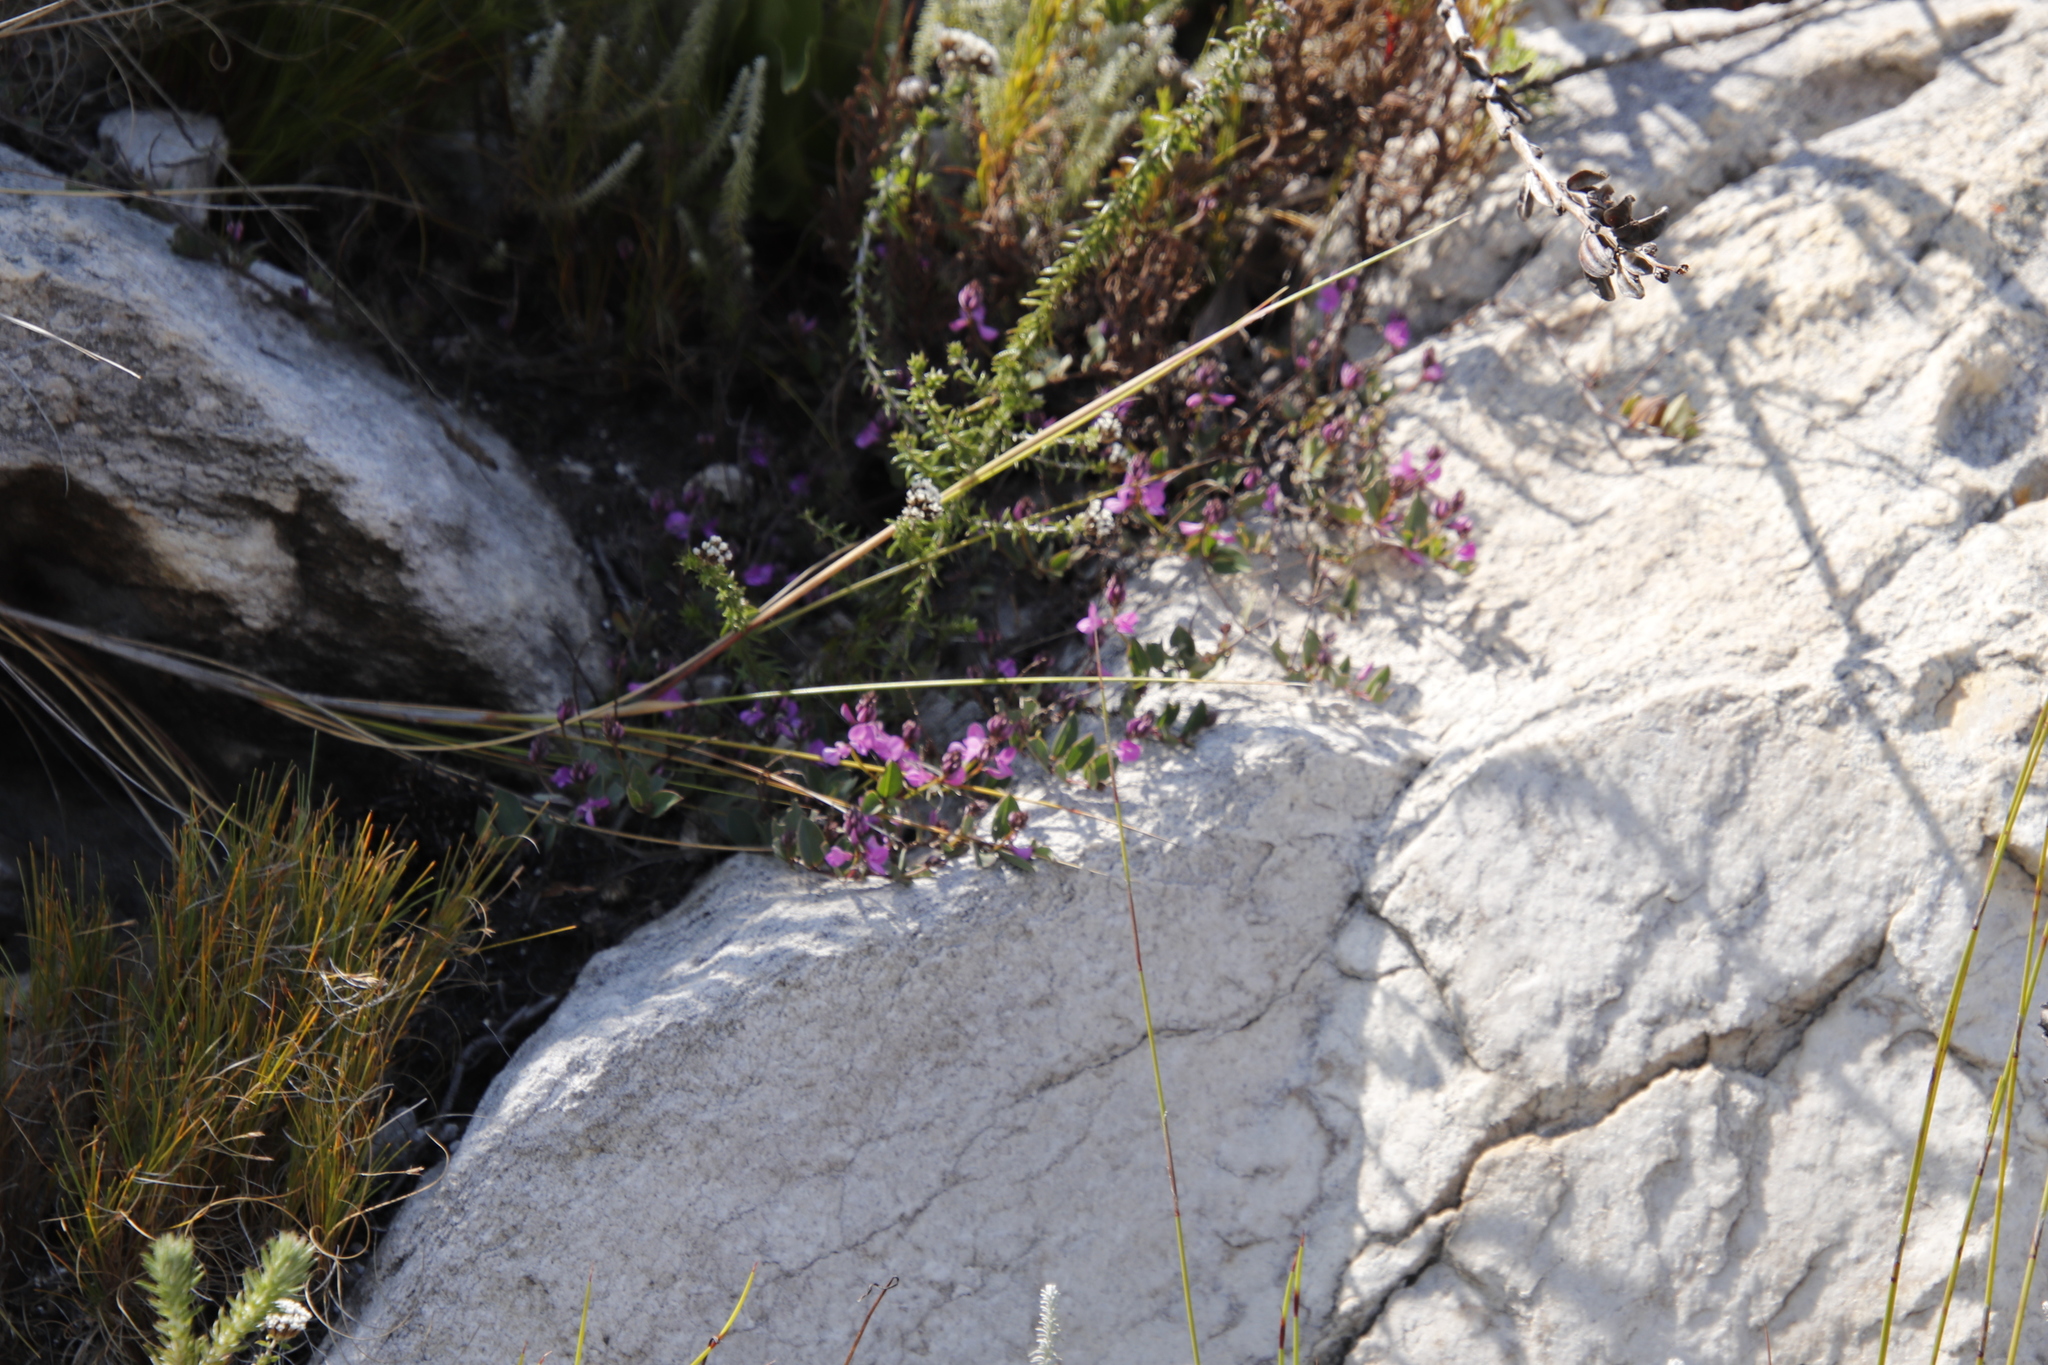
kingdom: Plantae
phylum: Tracheophyta
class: Magnoliopsida
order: Fabales
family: Fabaceae
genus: Indigofera
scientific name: Indigofera ovata
